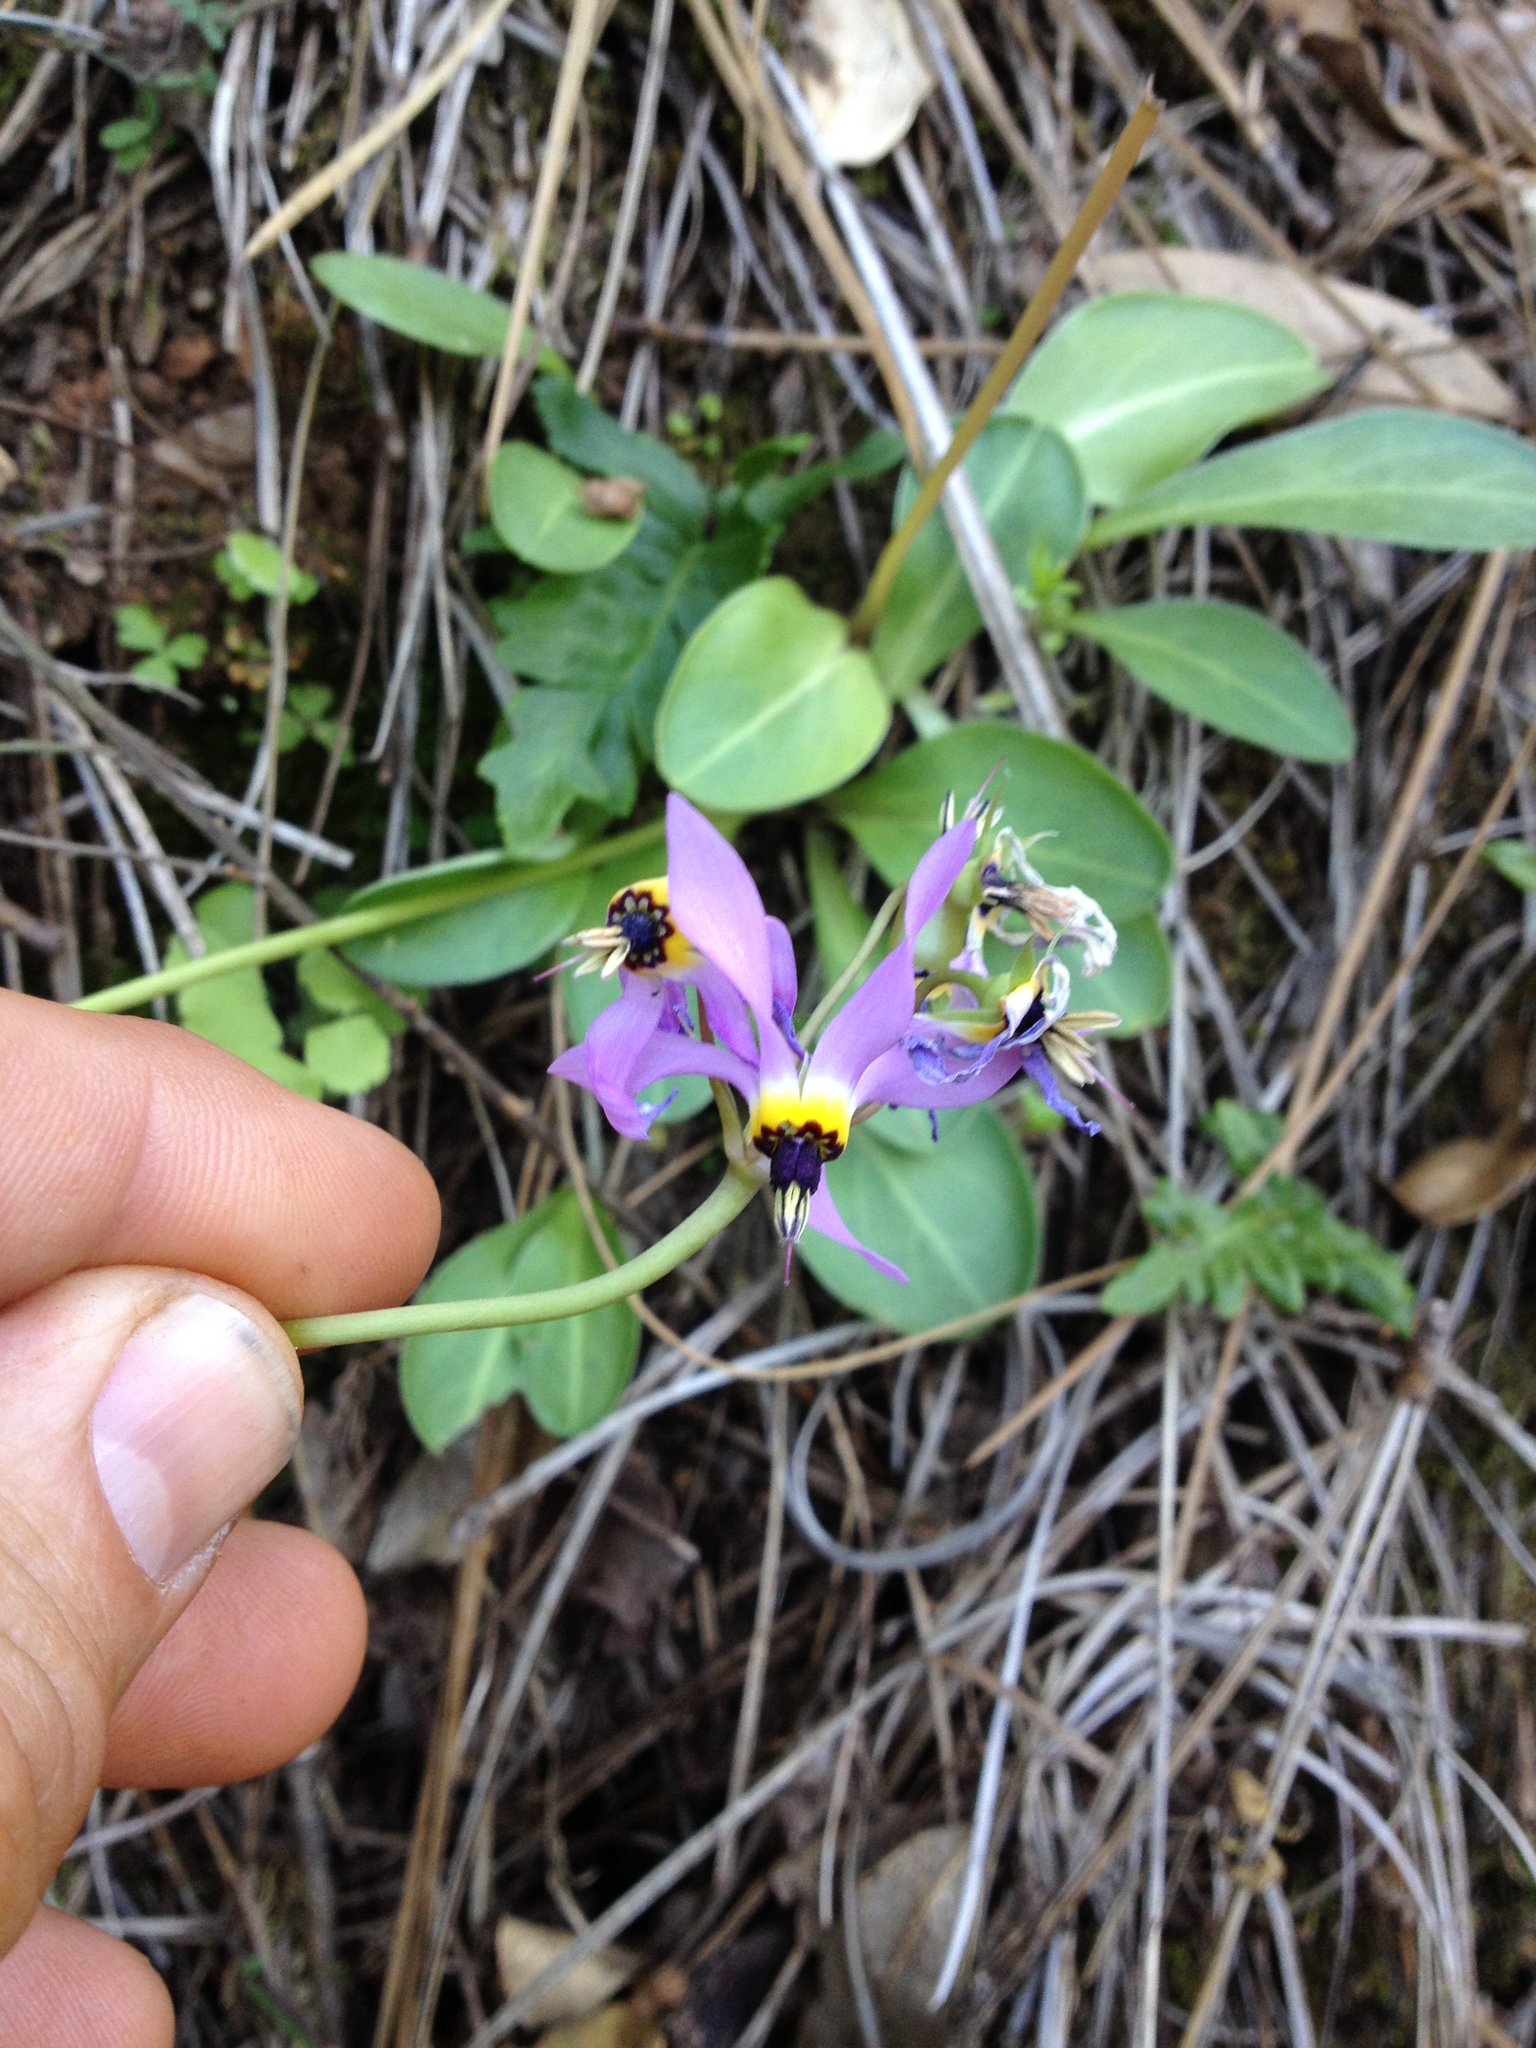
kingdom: Plantae
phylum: Tracheophyta
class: Magnoliopsida
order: Ericales
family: Primulaceae
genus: Dodecatheon
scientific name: Dodecatheon clevelandii
